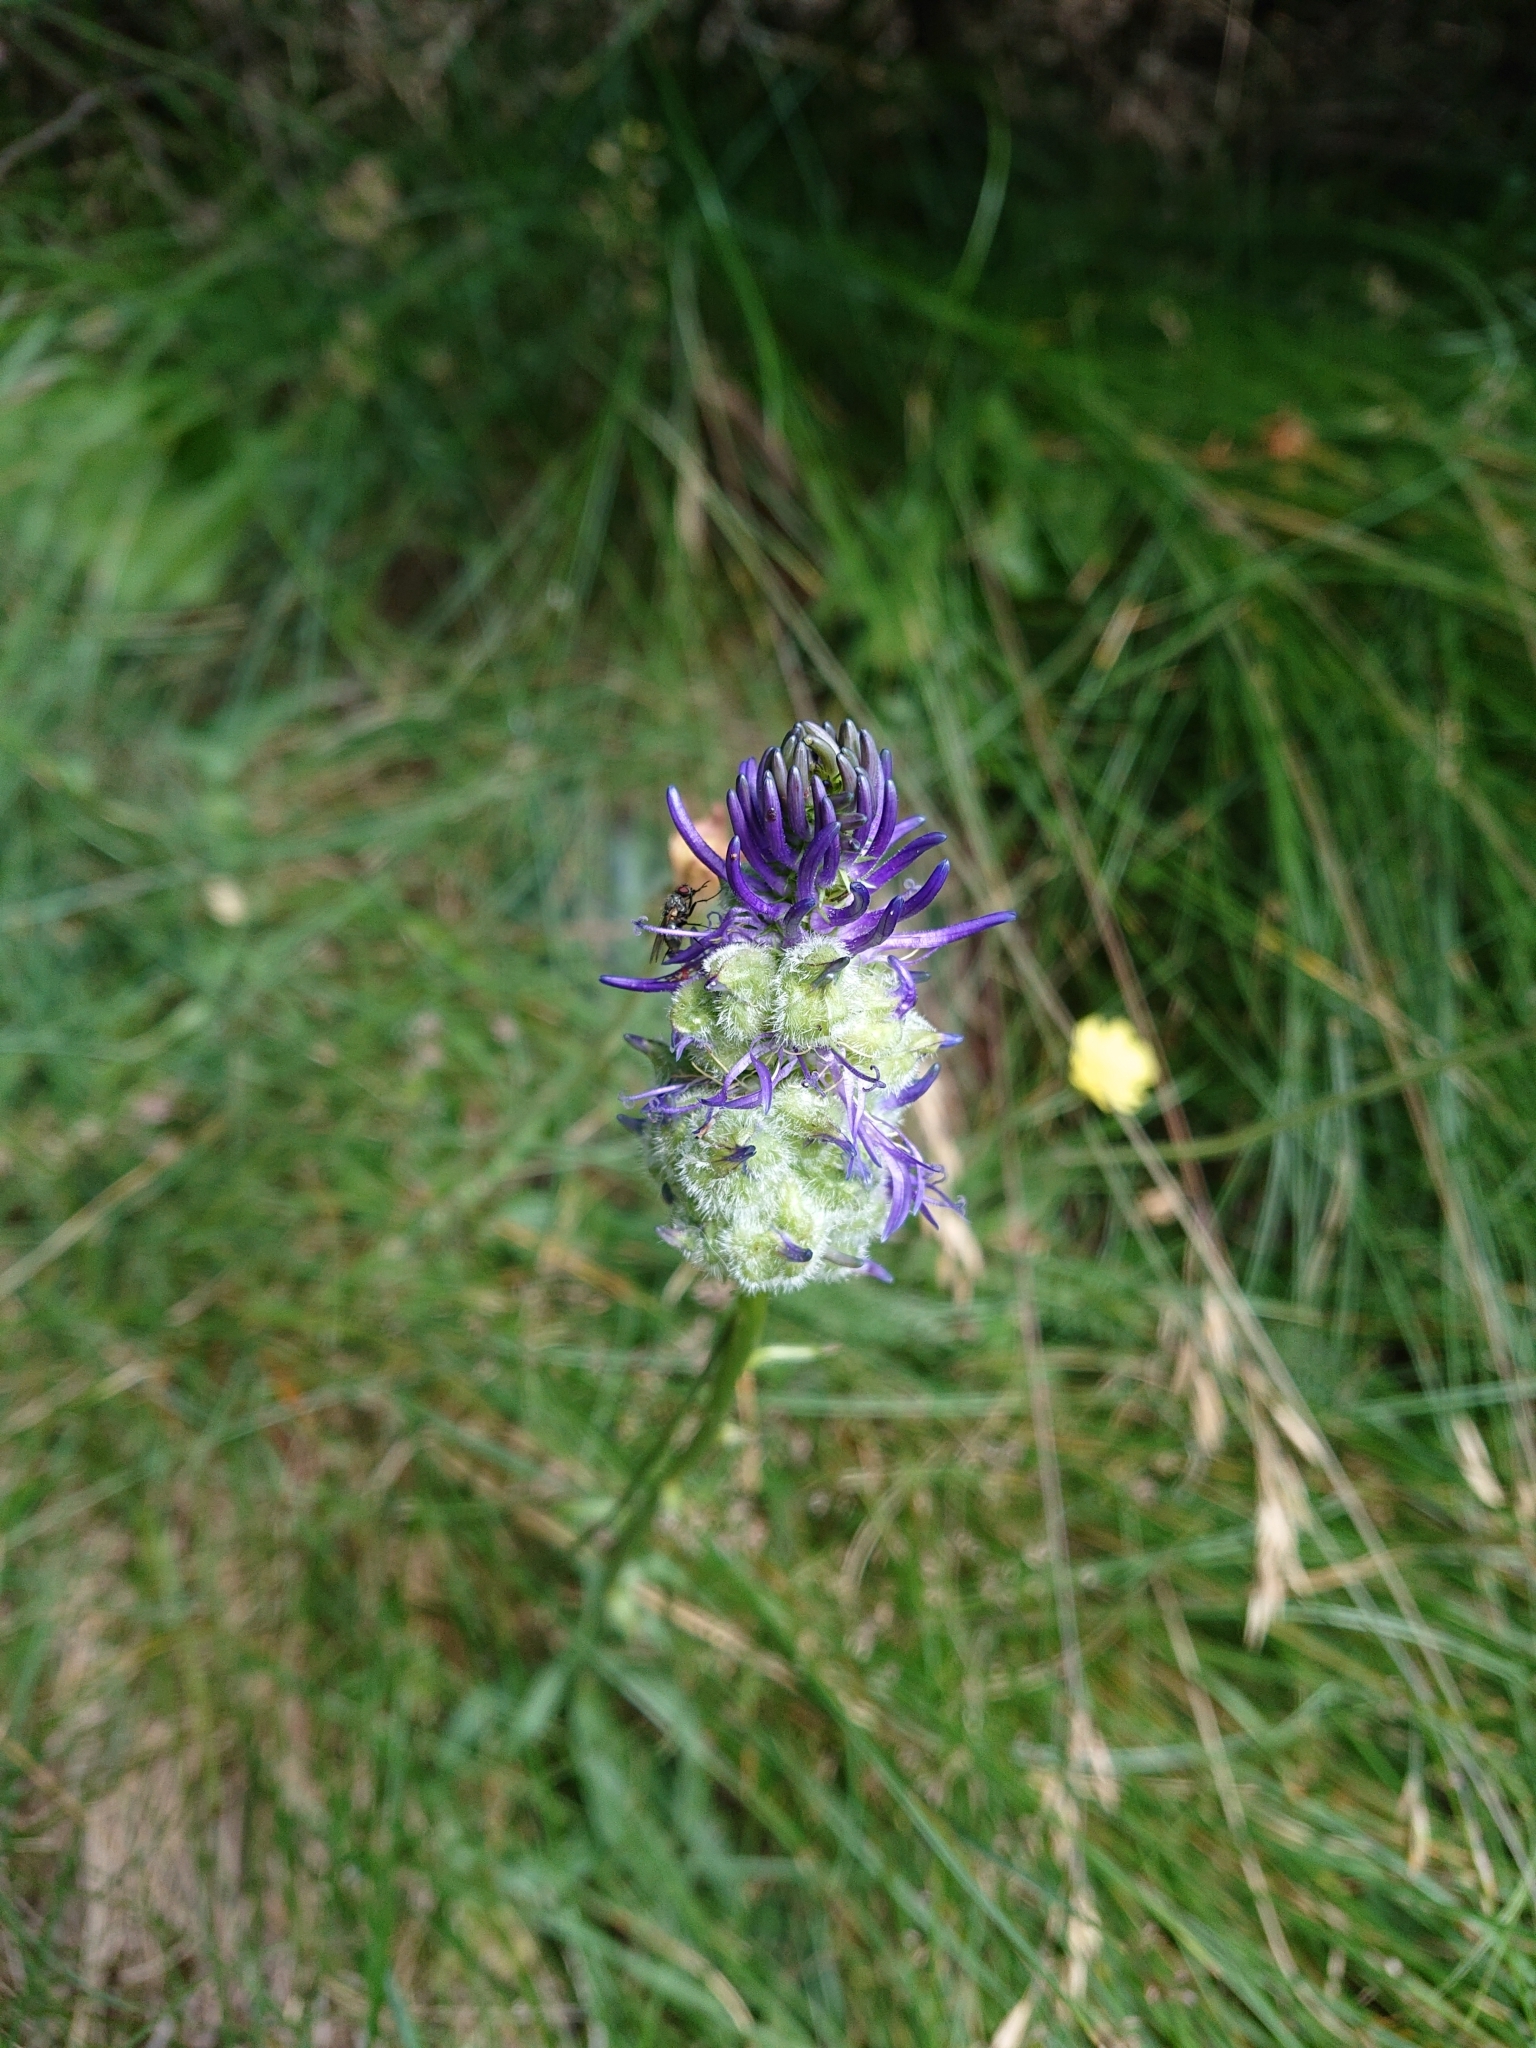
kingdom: Plantae
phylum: Tracheophyta
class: Magnoliopsida
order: Asterales
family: Campanulaceae
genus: Phyteuma
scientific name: Phyteuma betonicifolium
